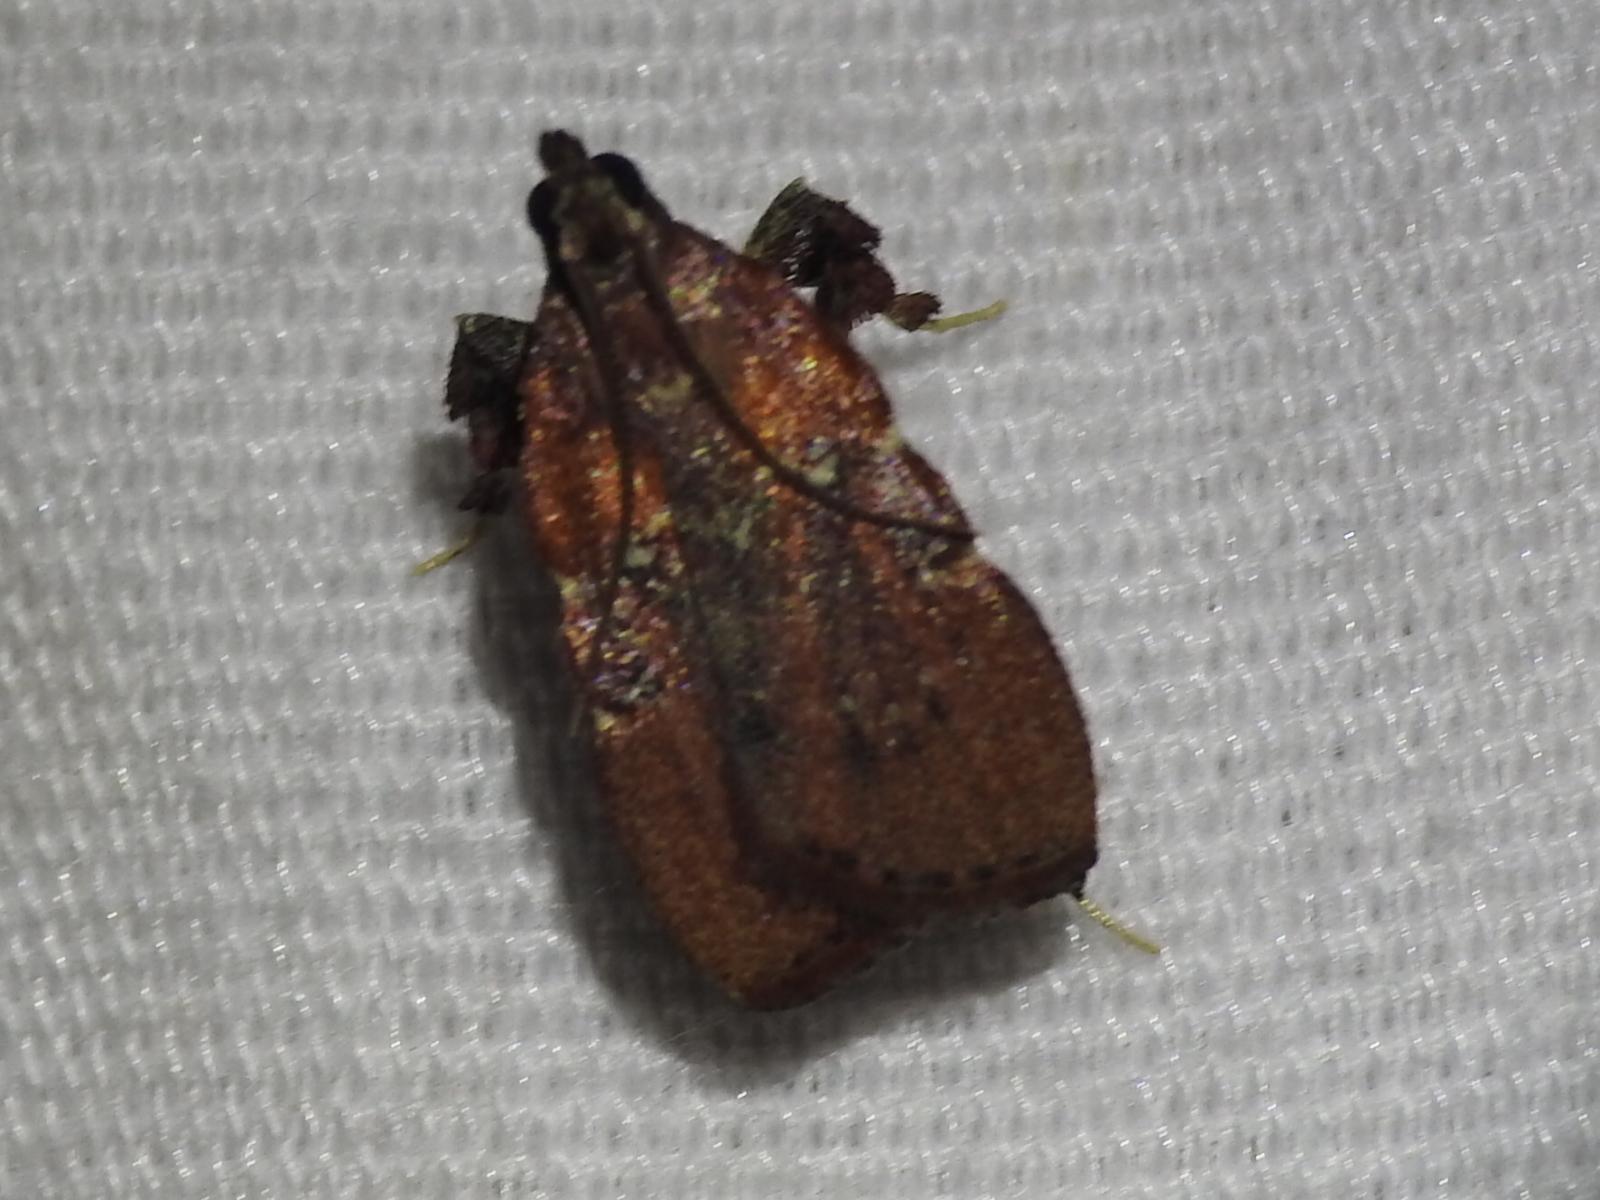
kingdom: Animalia
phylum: Arthropoda
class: Insecta
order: Lepidoptera
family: Pyralidae
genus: Galasa
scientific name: Galasa nigrinodis
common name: Boxwood leaftier moth
